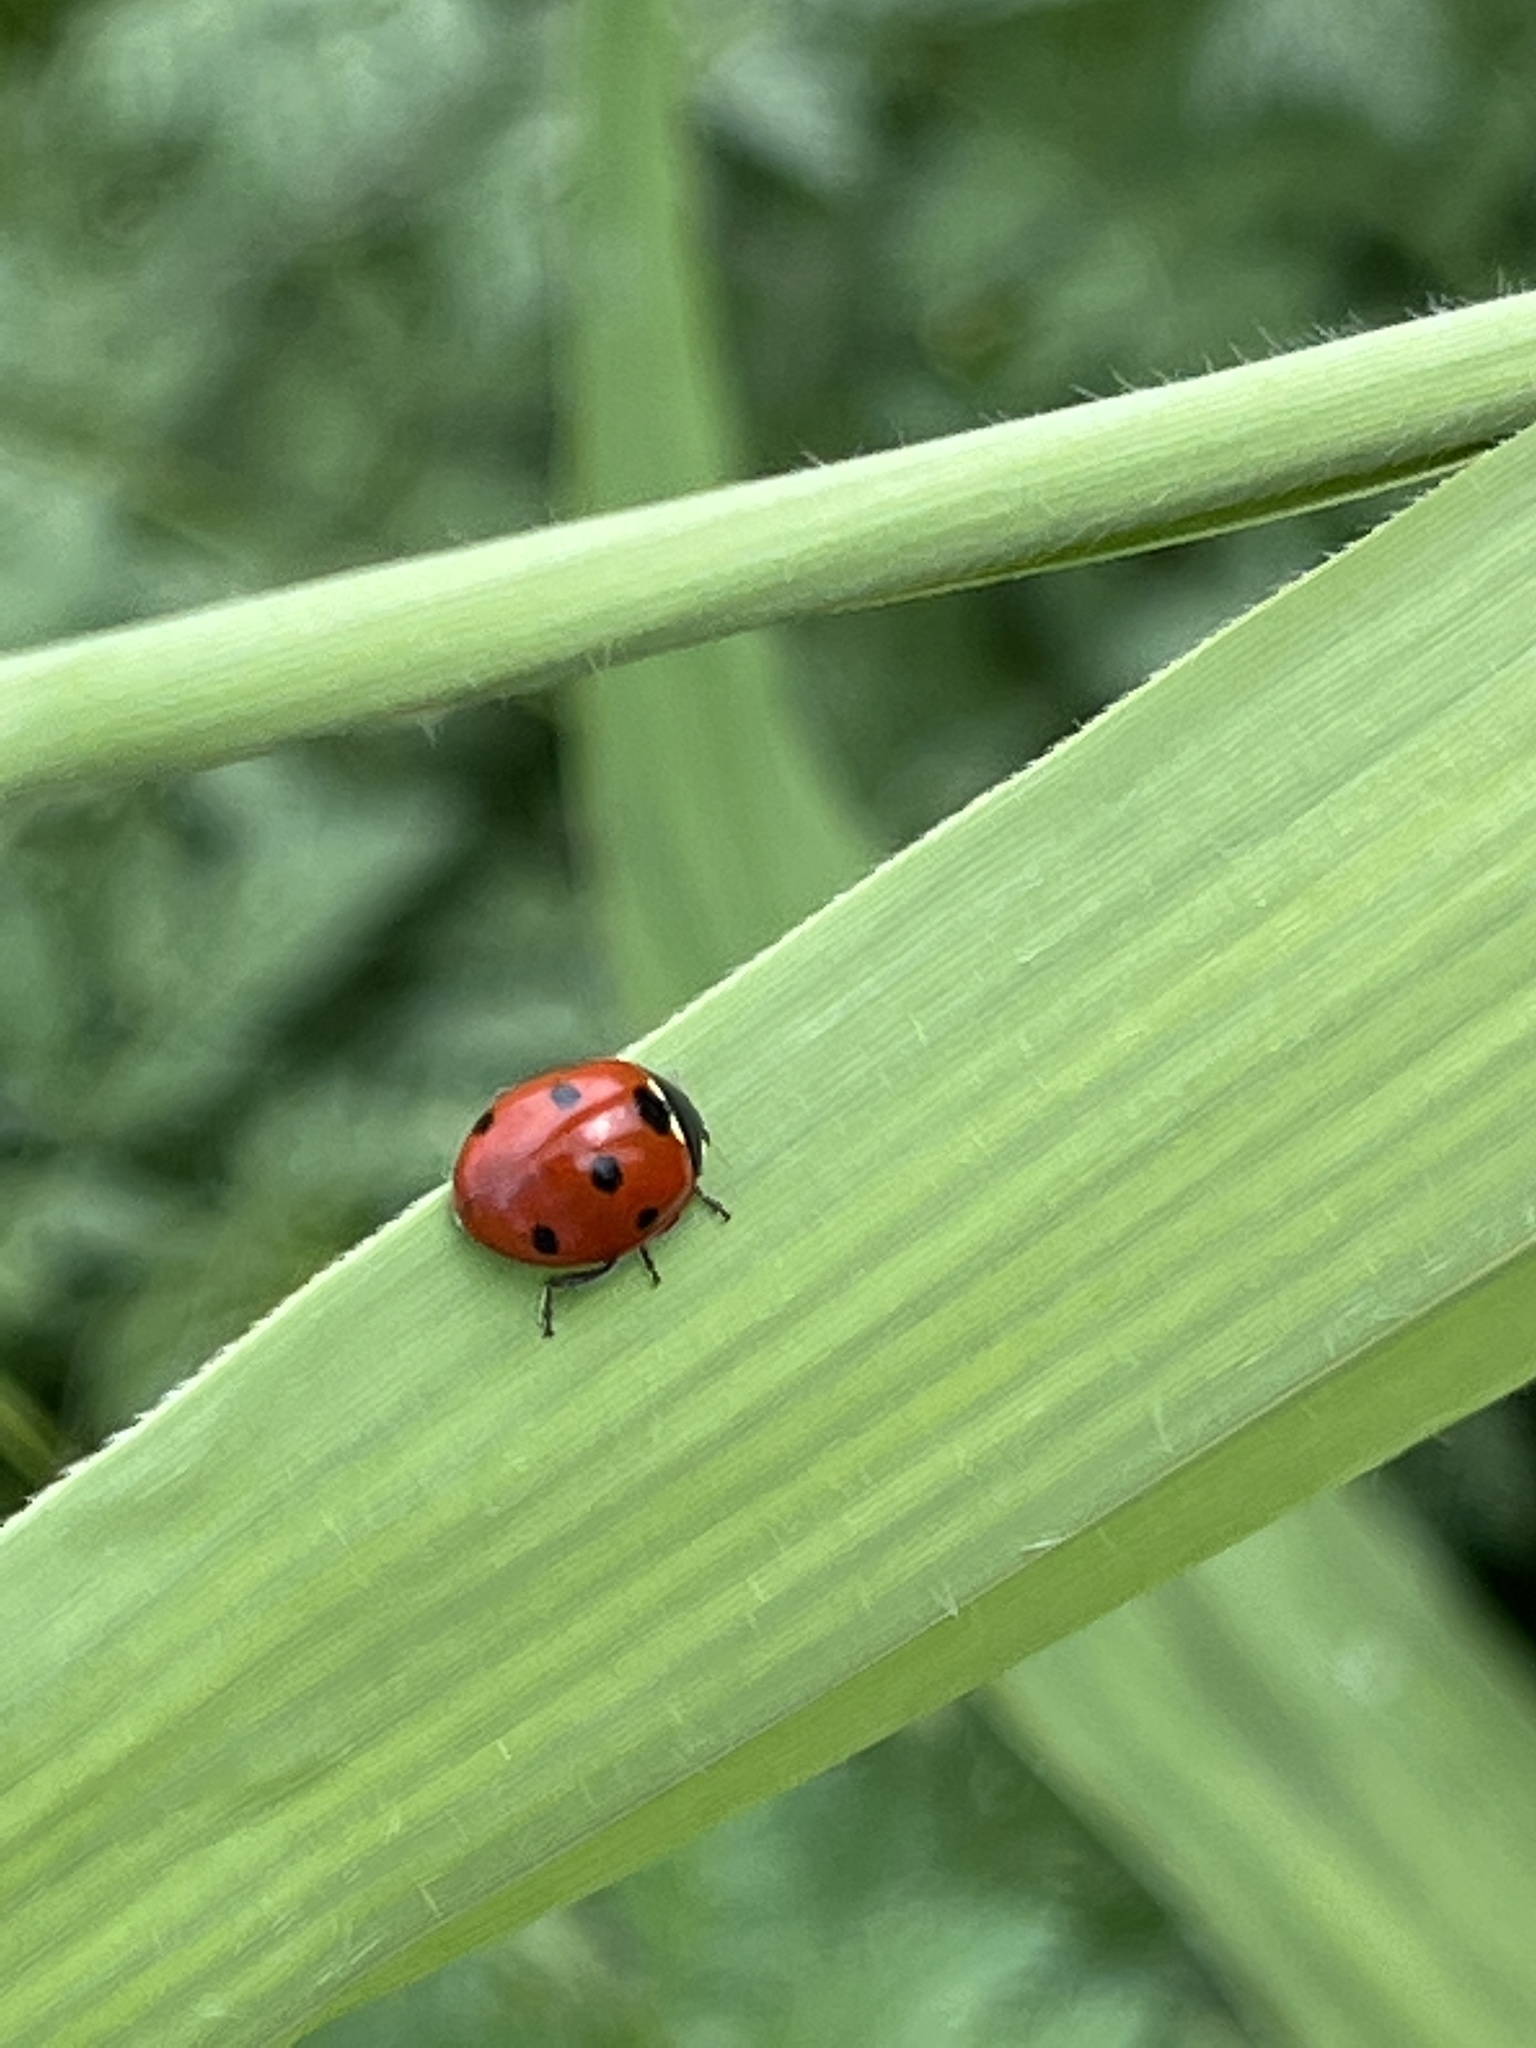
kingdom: Animalia
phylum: Arthropoda
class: Insecta
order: Coleoptera
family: Coccinellidae
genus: Coccinella
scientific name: Coccinella septempunctata
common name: Sevenspotted lady beetle
